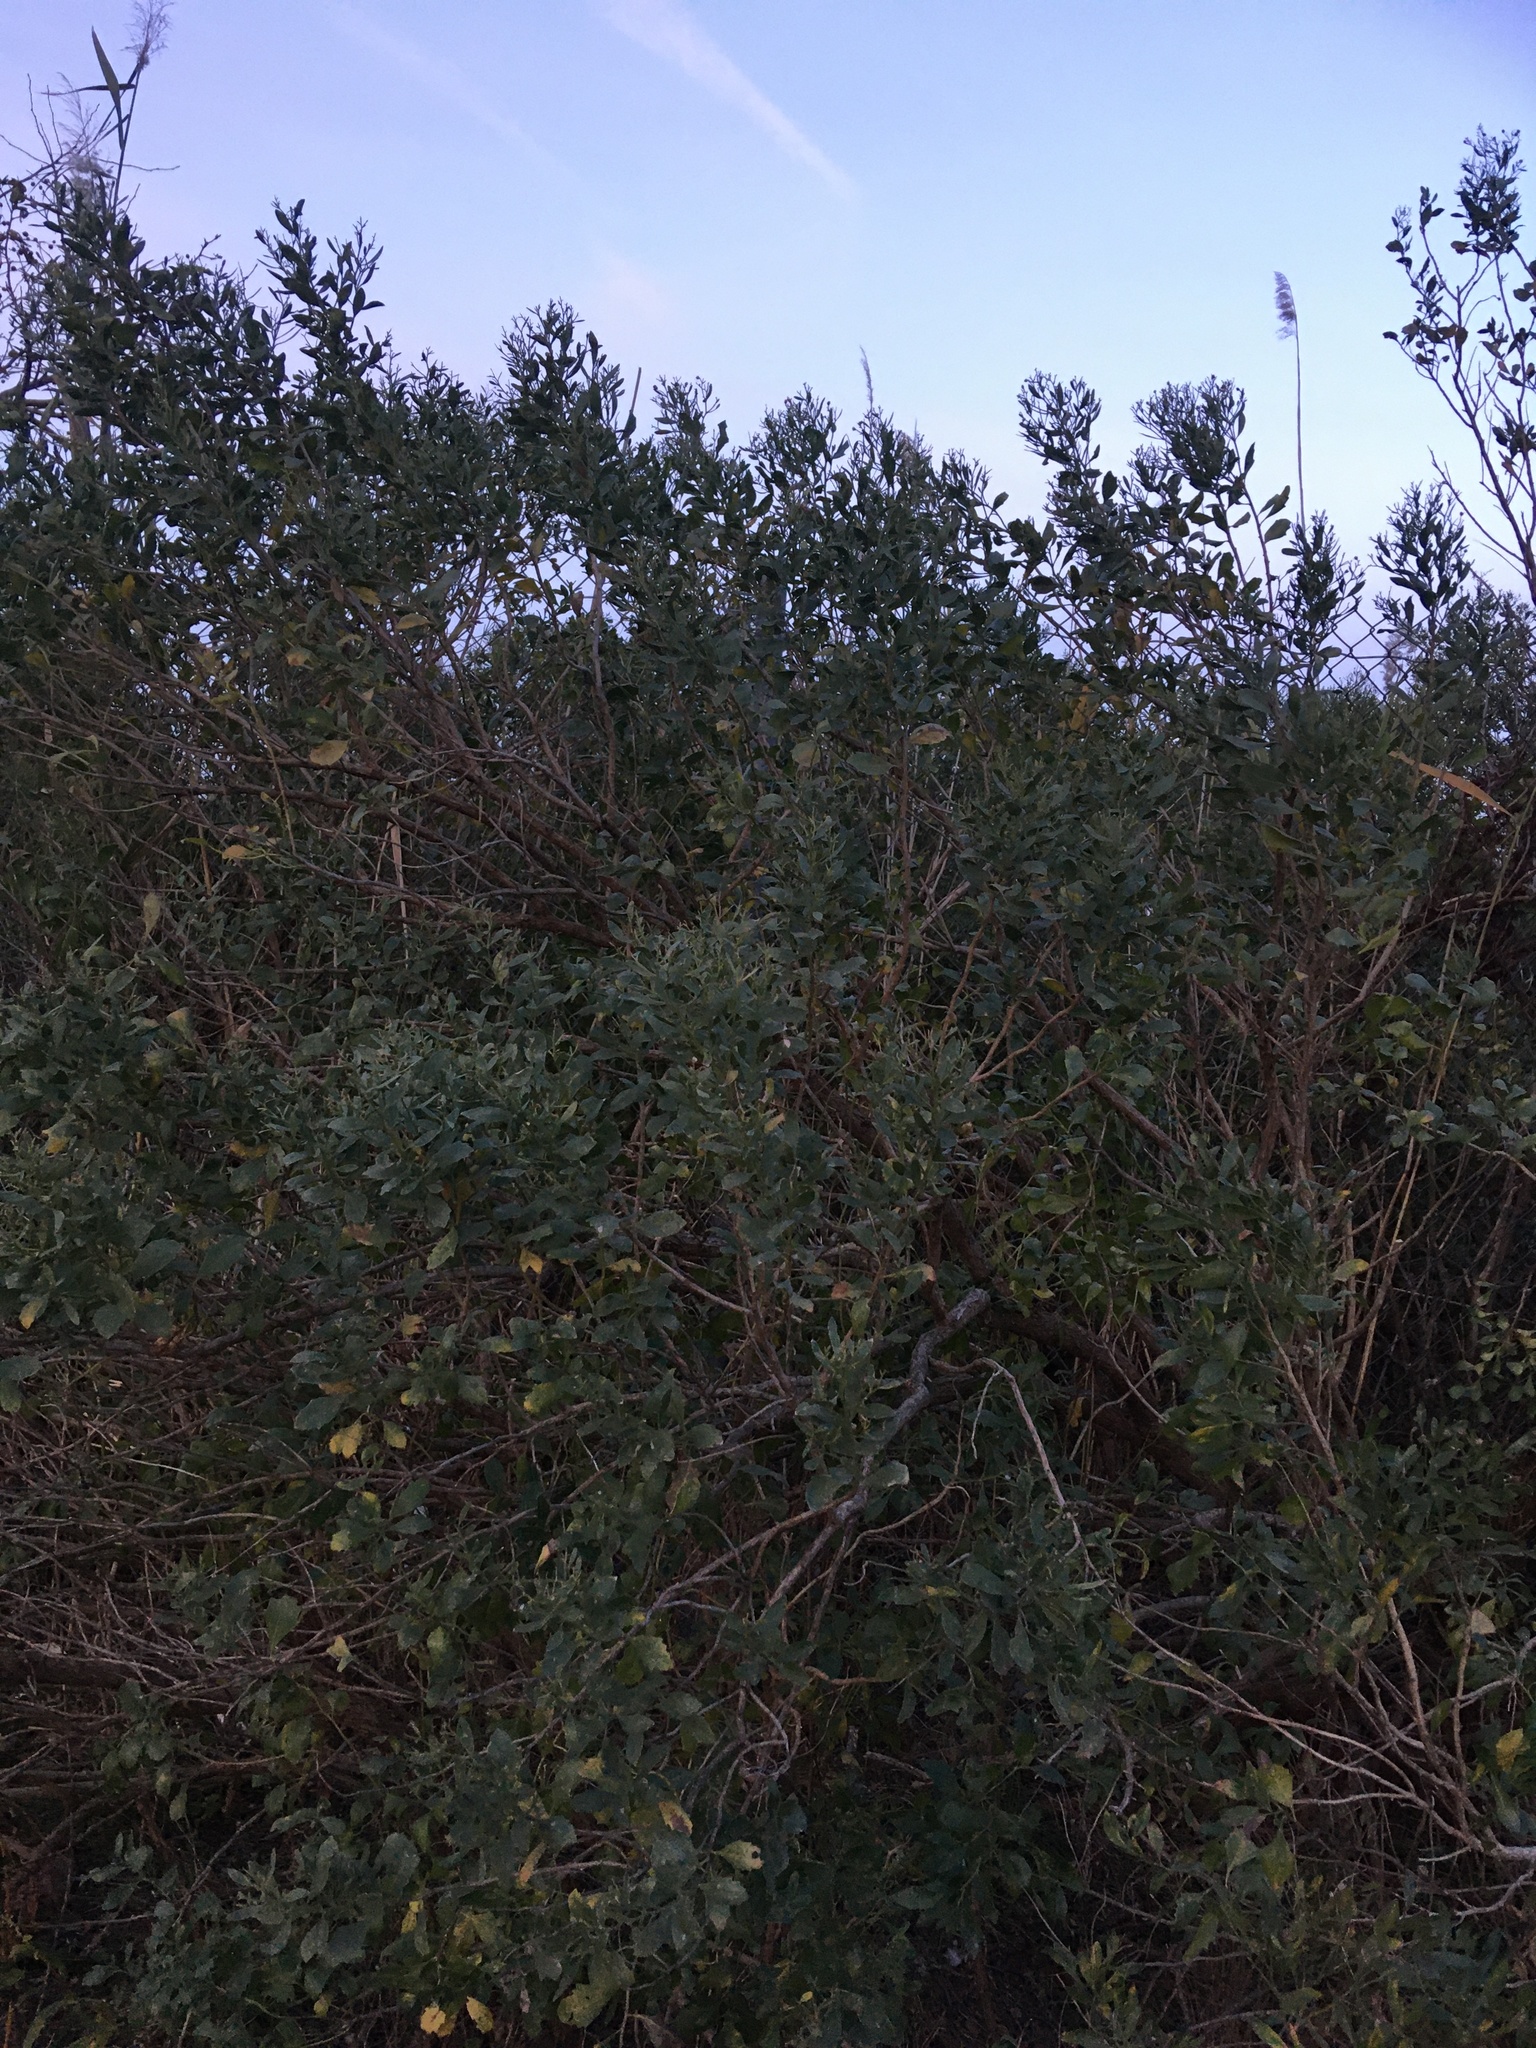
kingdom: Plantae
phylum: Tracheophyta
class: Magnoliopsida
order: Asterales
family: Asteraceae
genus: Baccharis
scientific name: Baccharis halimifolia
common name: Eastern baccharis
